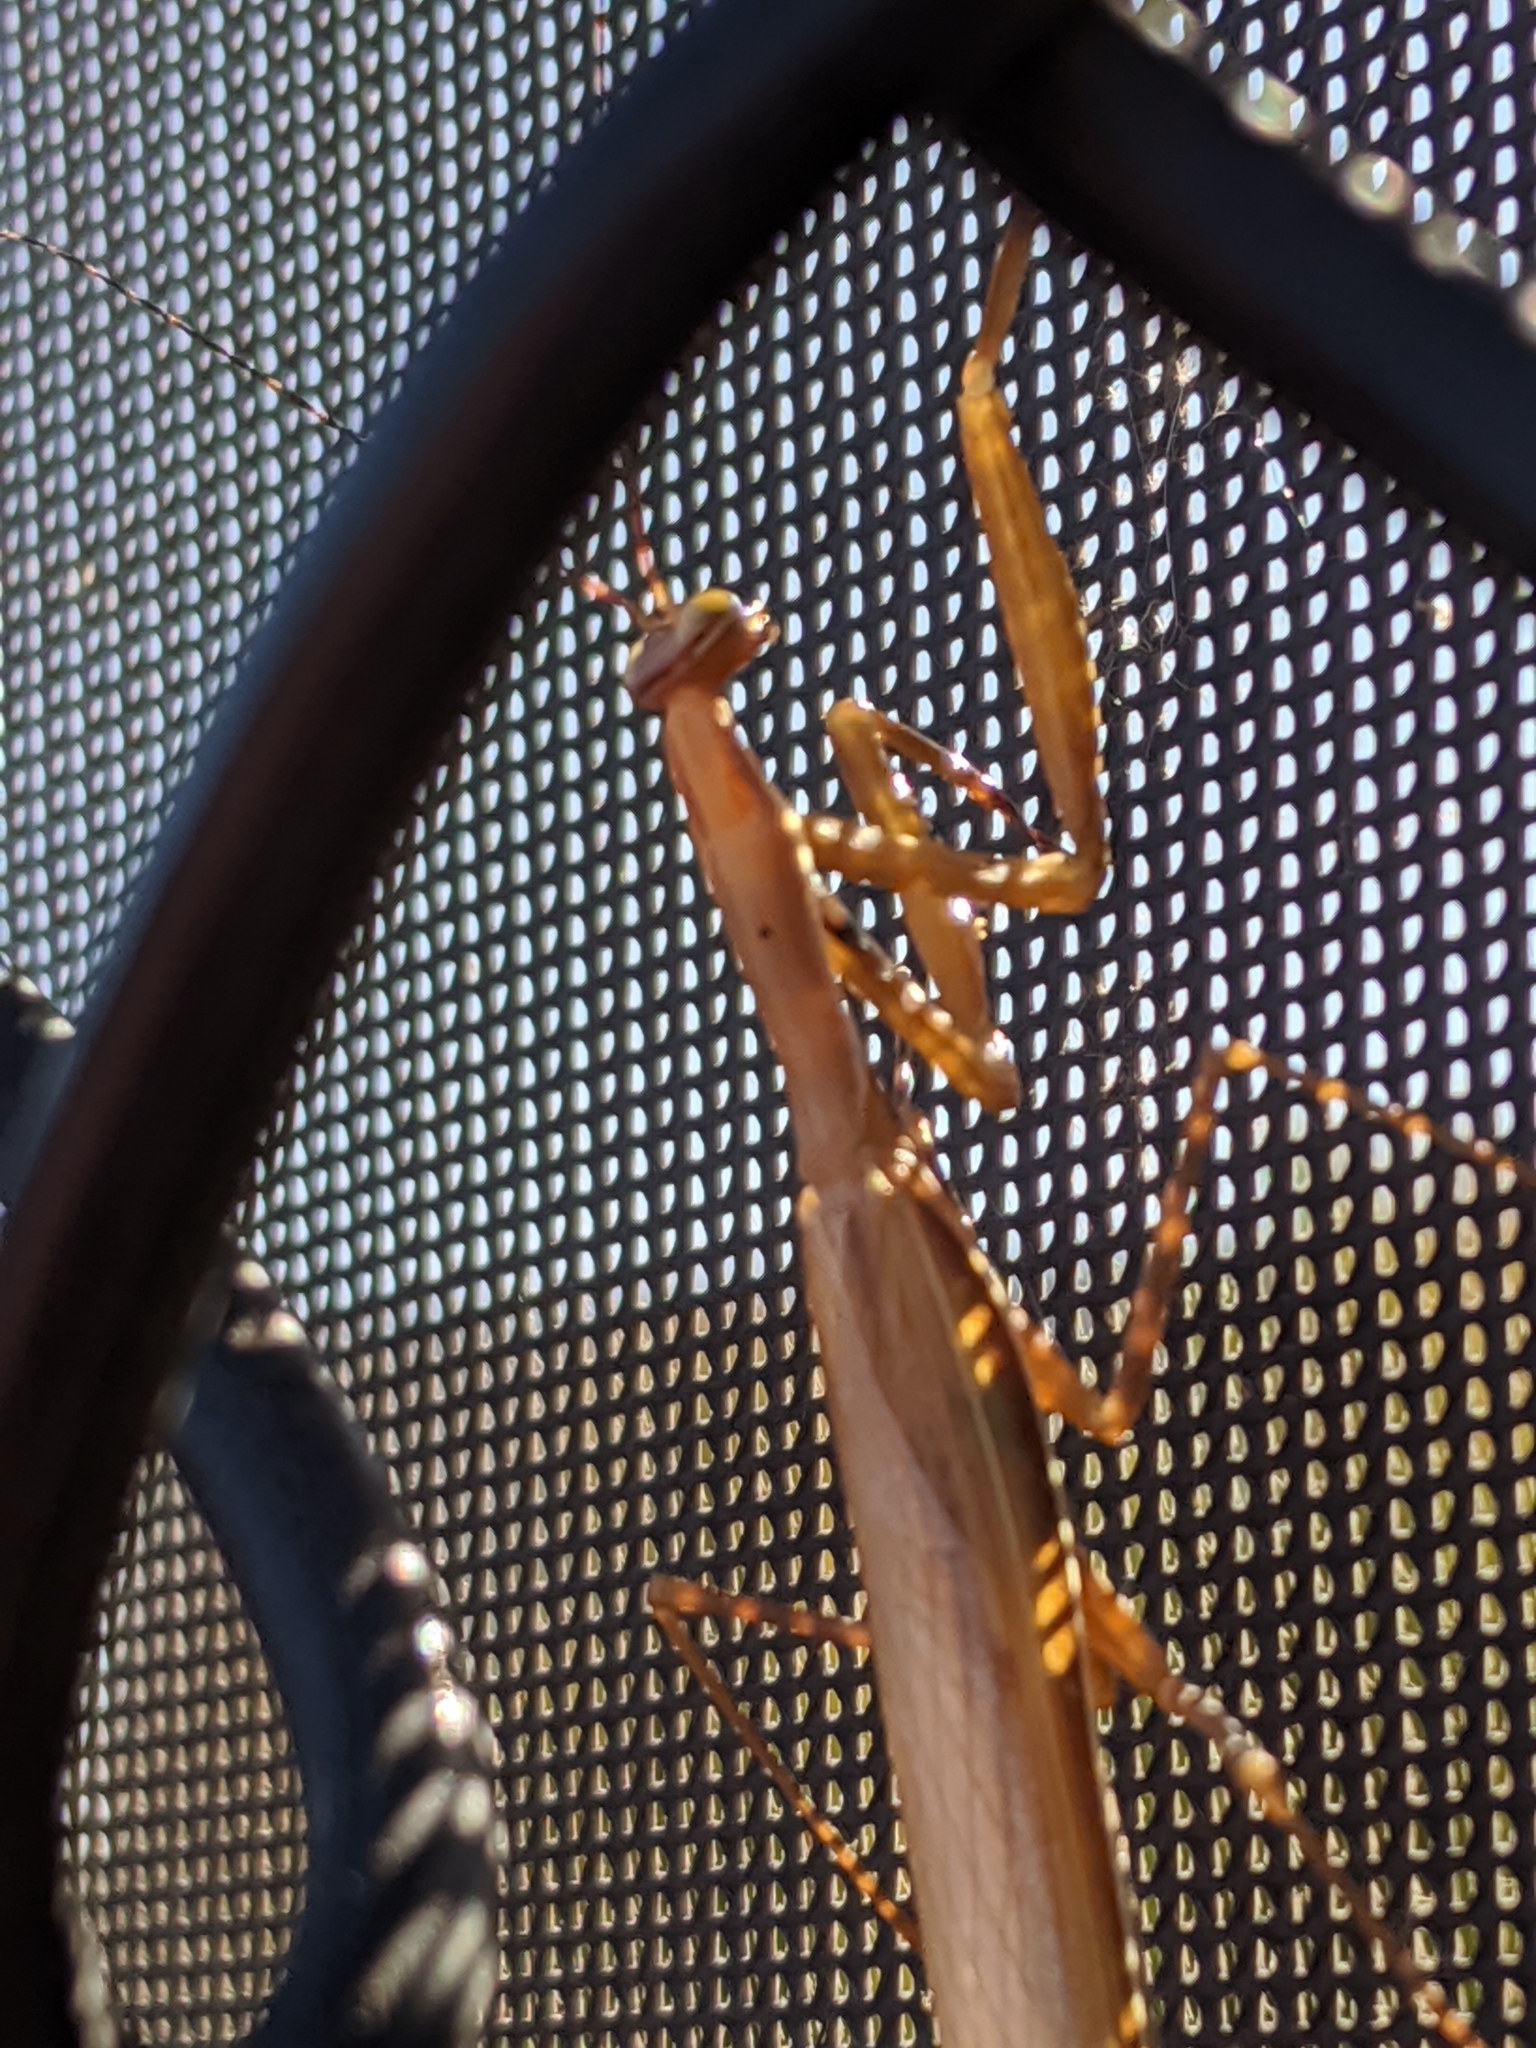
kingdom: Animalia
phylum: Arthropoda
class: Insecta
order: Mantodea
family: Mantidae
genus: Mantis
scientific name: Mantis religiosa
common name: Praying mantis
